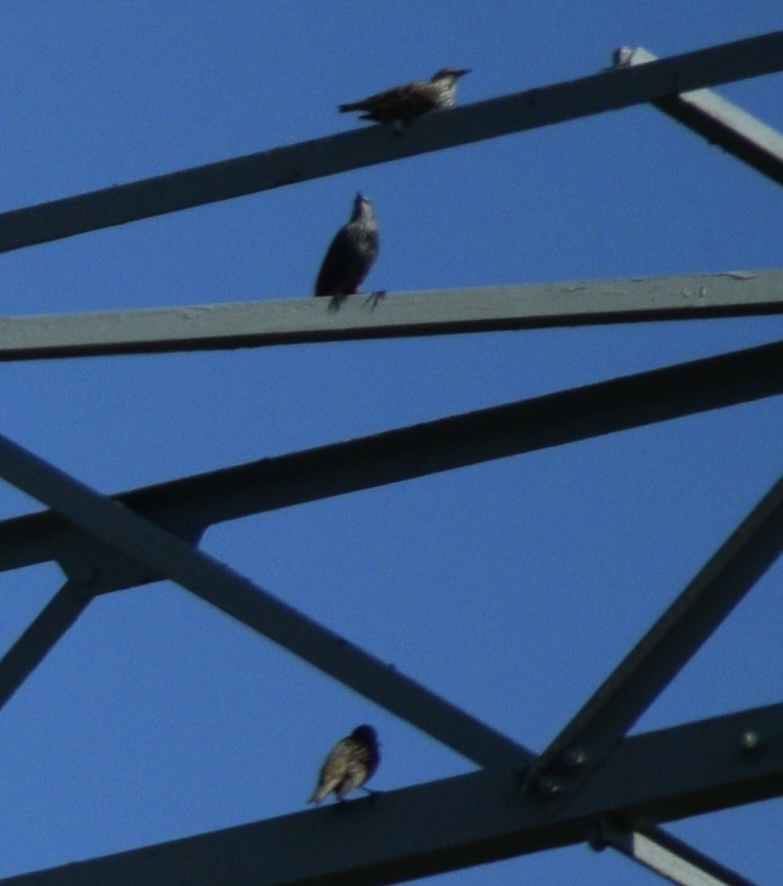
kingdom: Animalia
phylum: Chordata
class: Aves
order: Passeriformes
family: Sturnidae
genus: Sturnus
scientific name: Sturnus vulgaris
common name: Common starling
